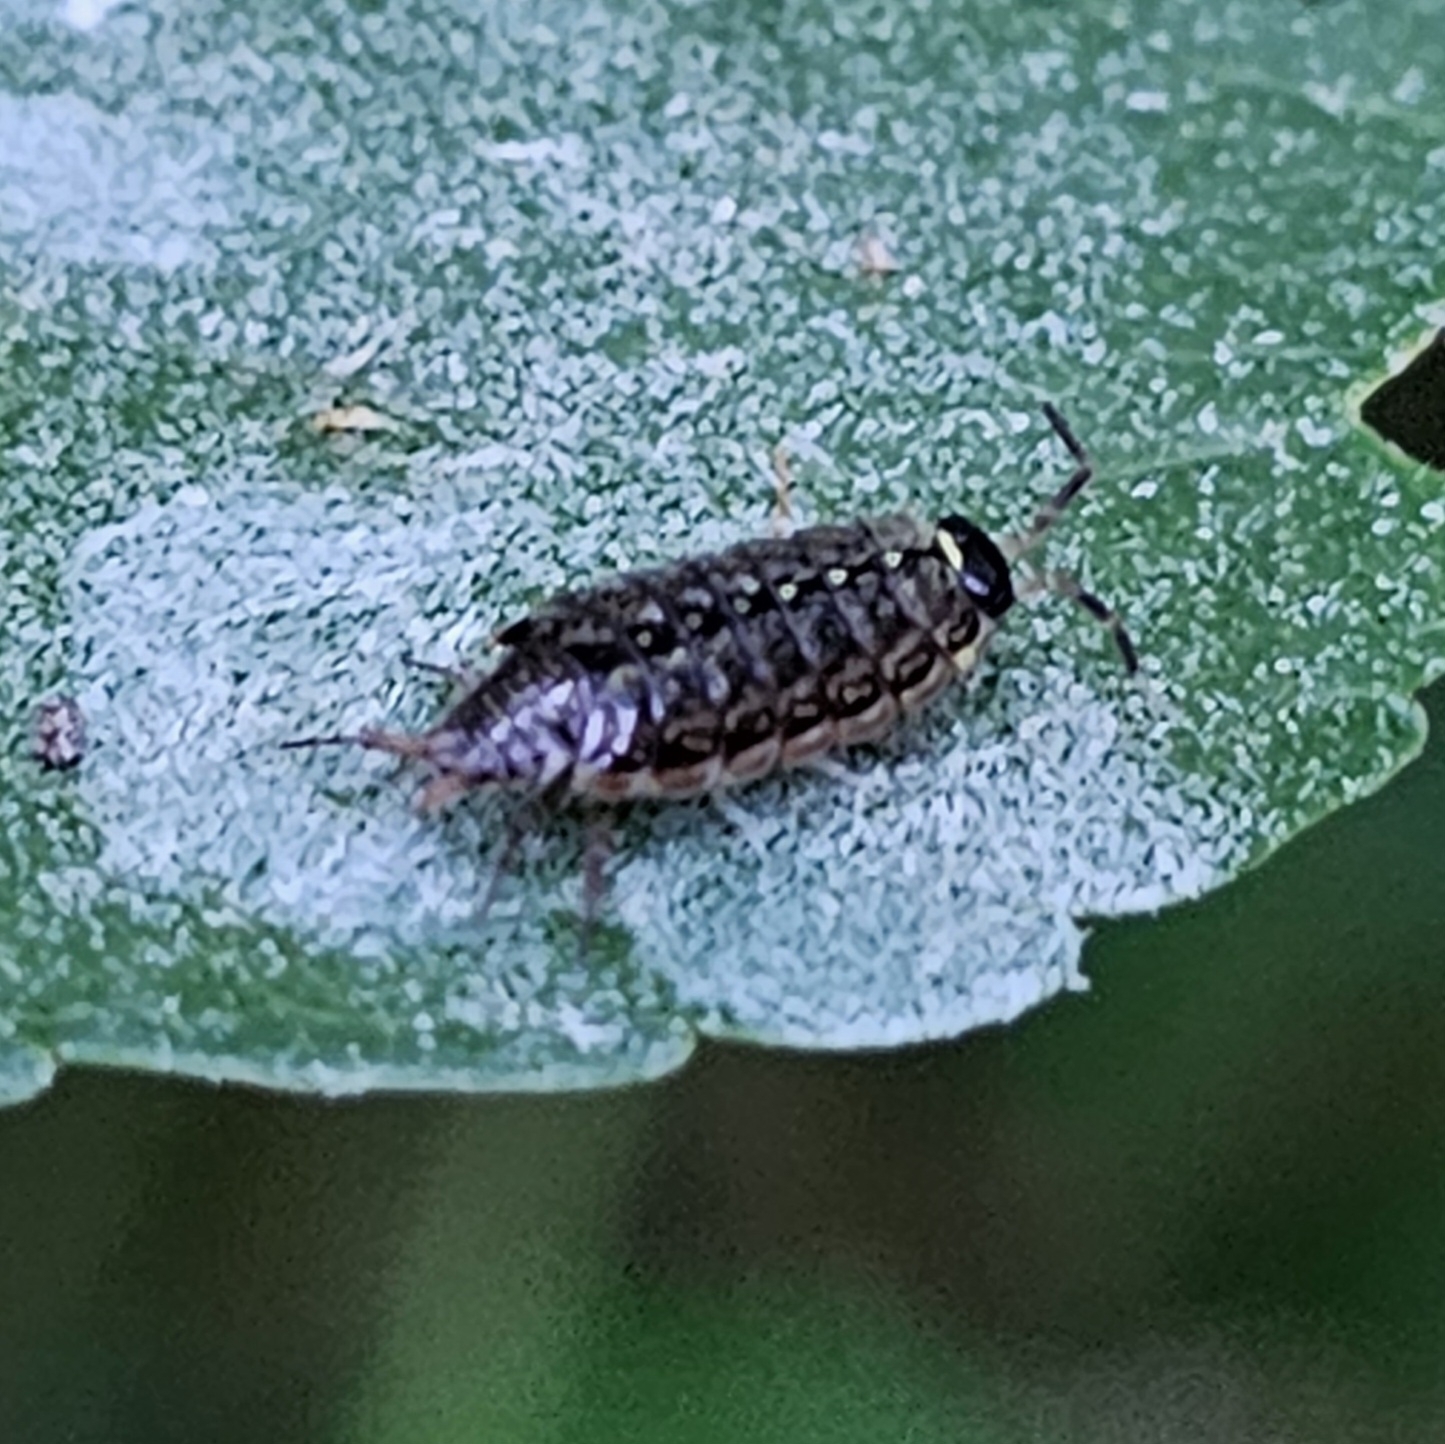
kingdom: Animalia
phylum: Arthropoda
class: Malacostraca
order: Isopoda
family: Philosciidae
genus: Philoscia
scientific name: Philoscia muscorum
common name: Common striped woodlouse
